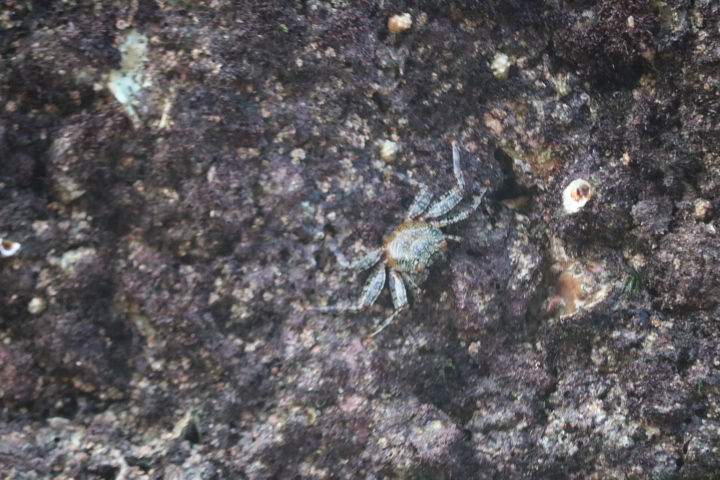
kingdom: Animalia
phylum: Arthropoda
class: Malacostraca
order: Decapoda
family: Grapsidae
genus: Grapsus
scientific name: Grapsus grapsus
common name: Sally lightfoot
